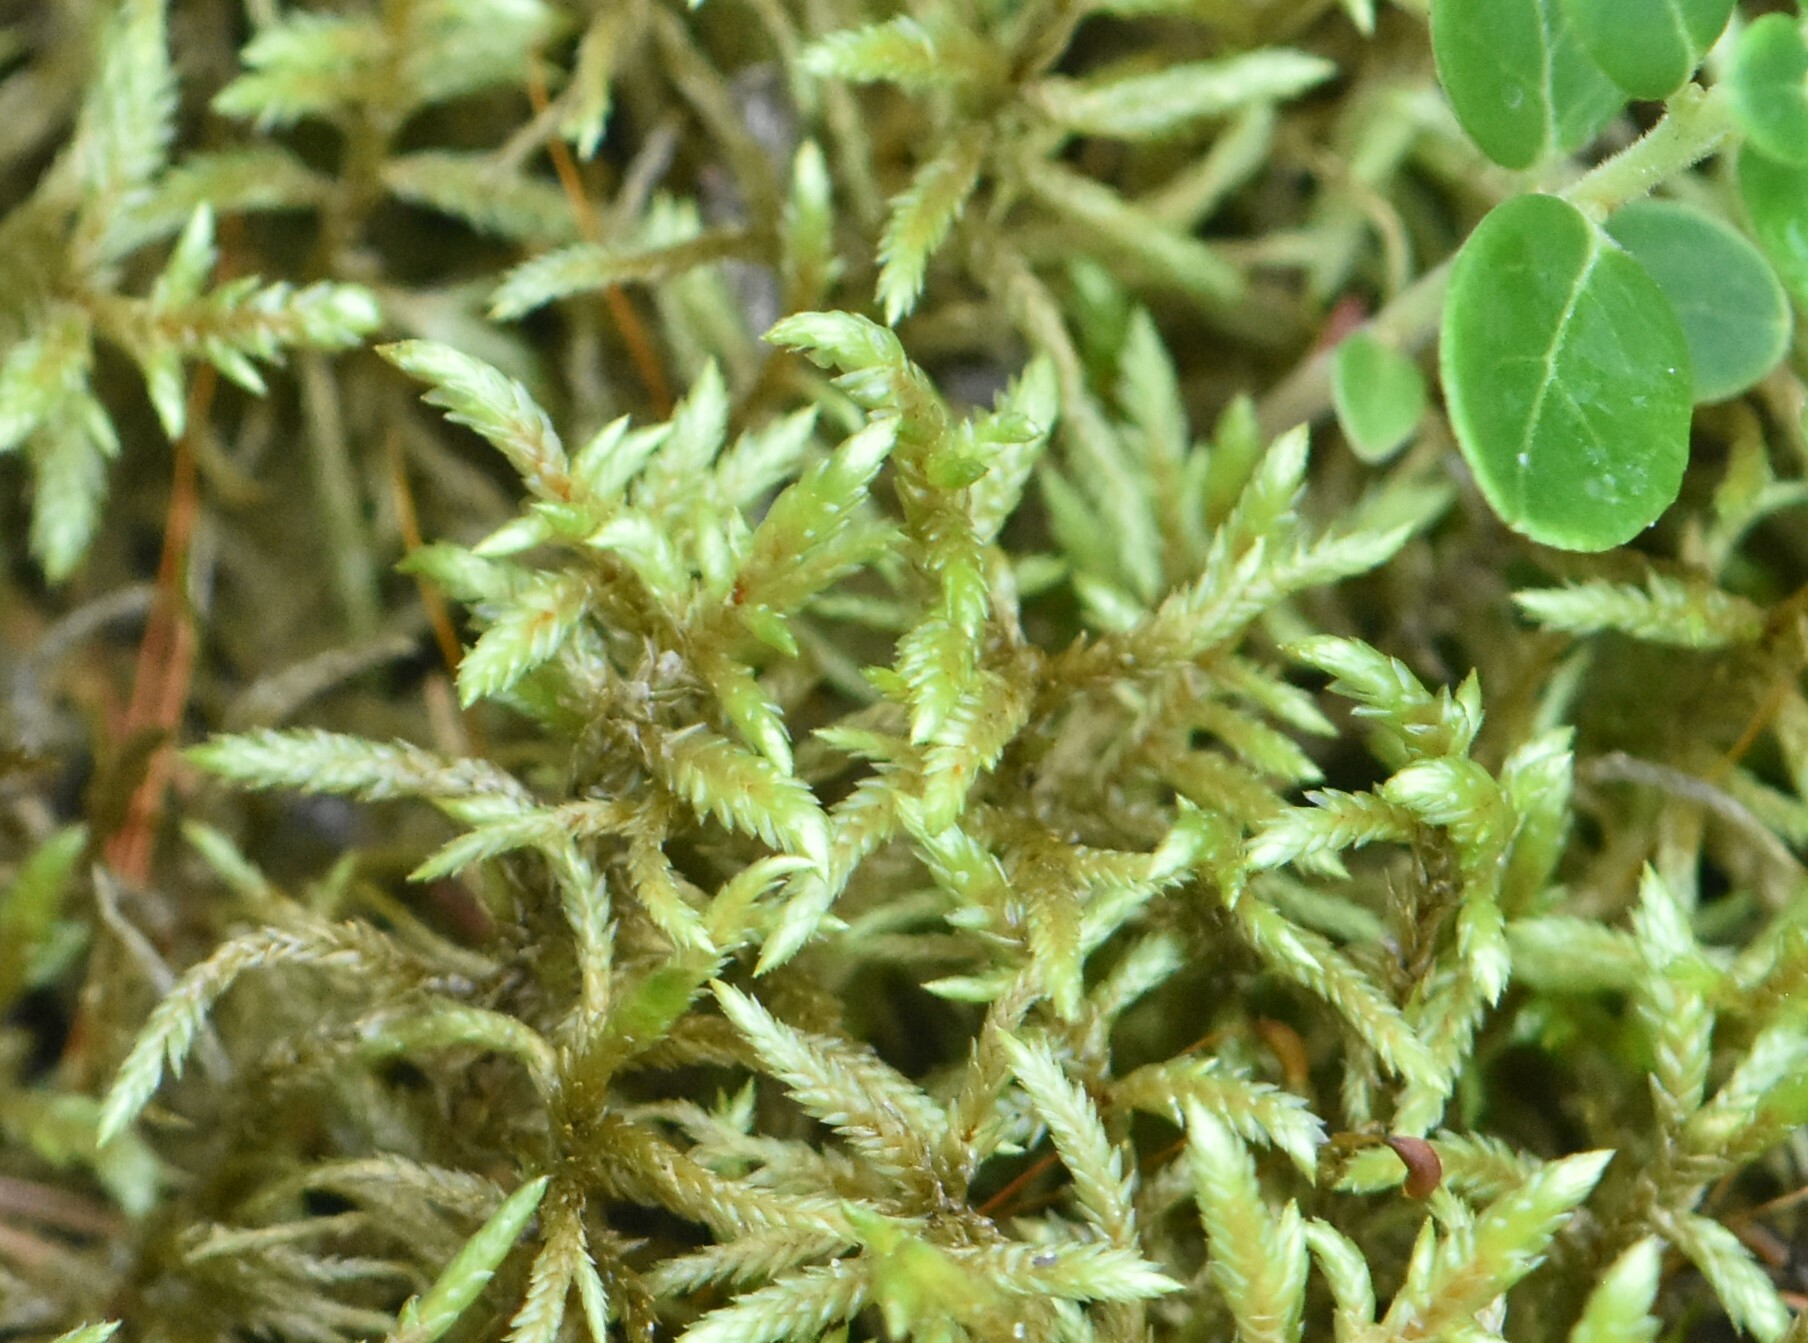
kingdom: Plantae
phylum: Bryophyta
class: Bryopsida
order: Hypnales
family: Hylocomiaceae
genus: Pleurozium
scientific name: Pleurozium schreberi
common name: Red-stemmed feather moss
